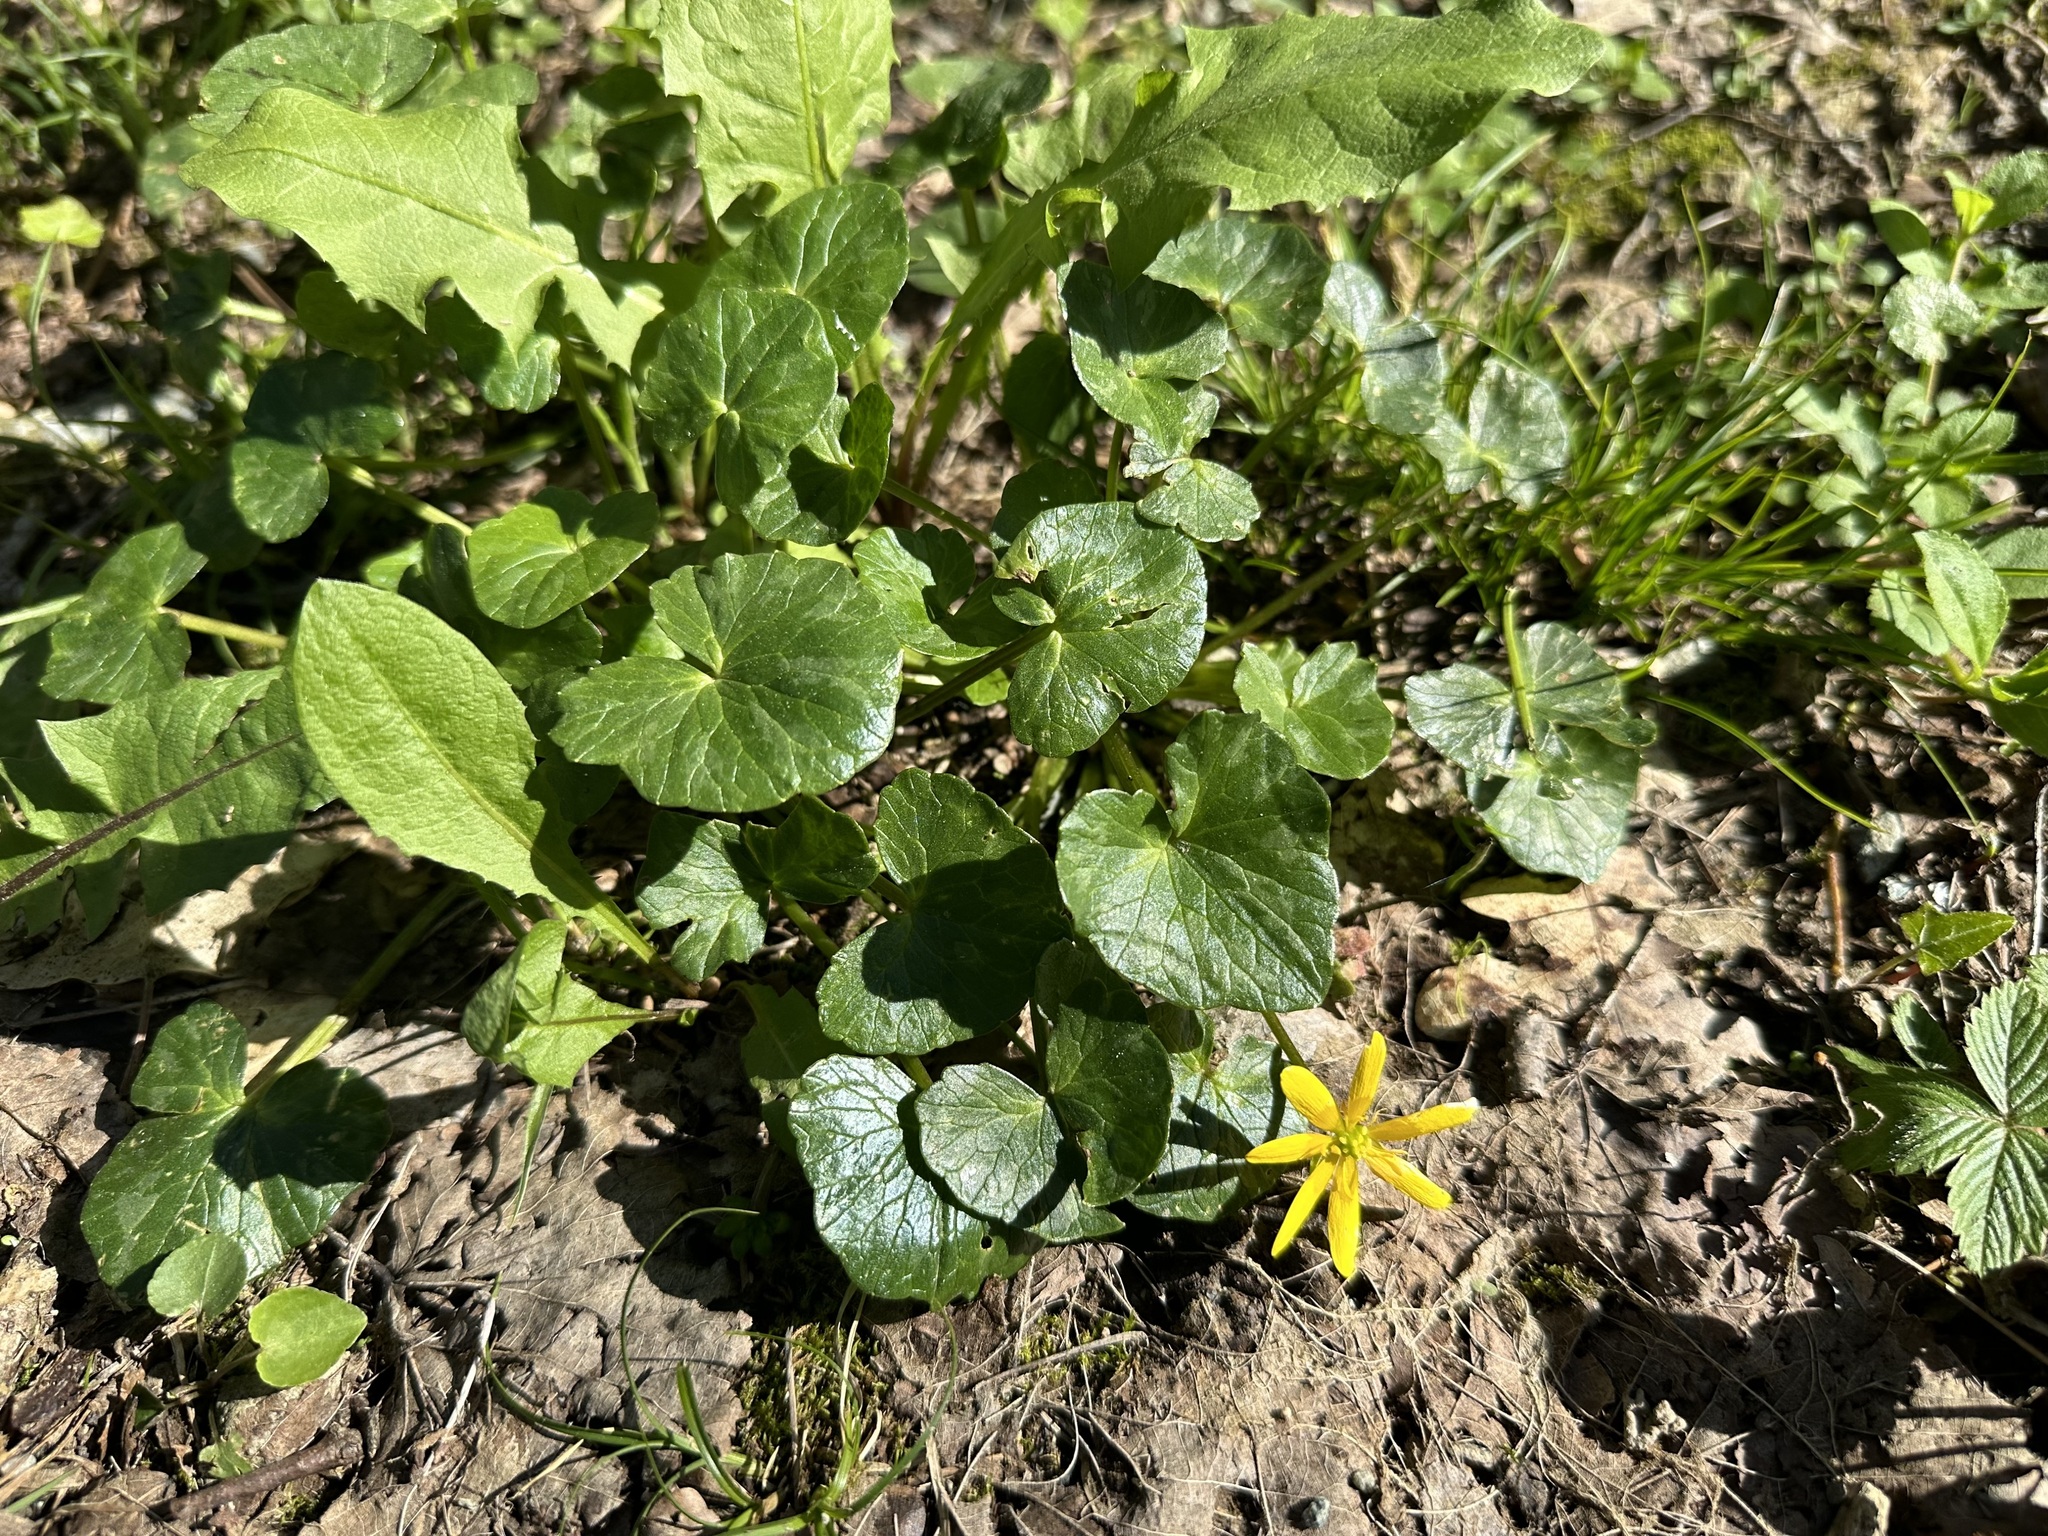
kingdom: Plantae
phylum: Tracheophyta
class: Magnoliopsida
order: Ranunculales
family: Ranunculaceae
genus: Ficaria
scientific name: Ficaria verna
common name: Lesser celandine
